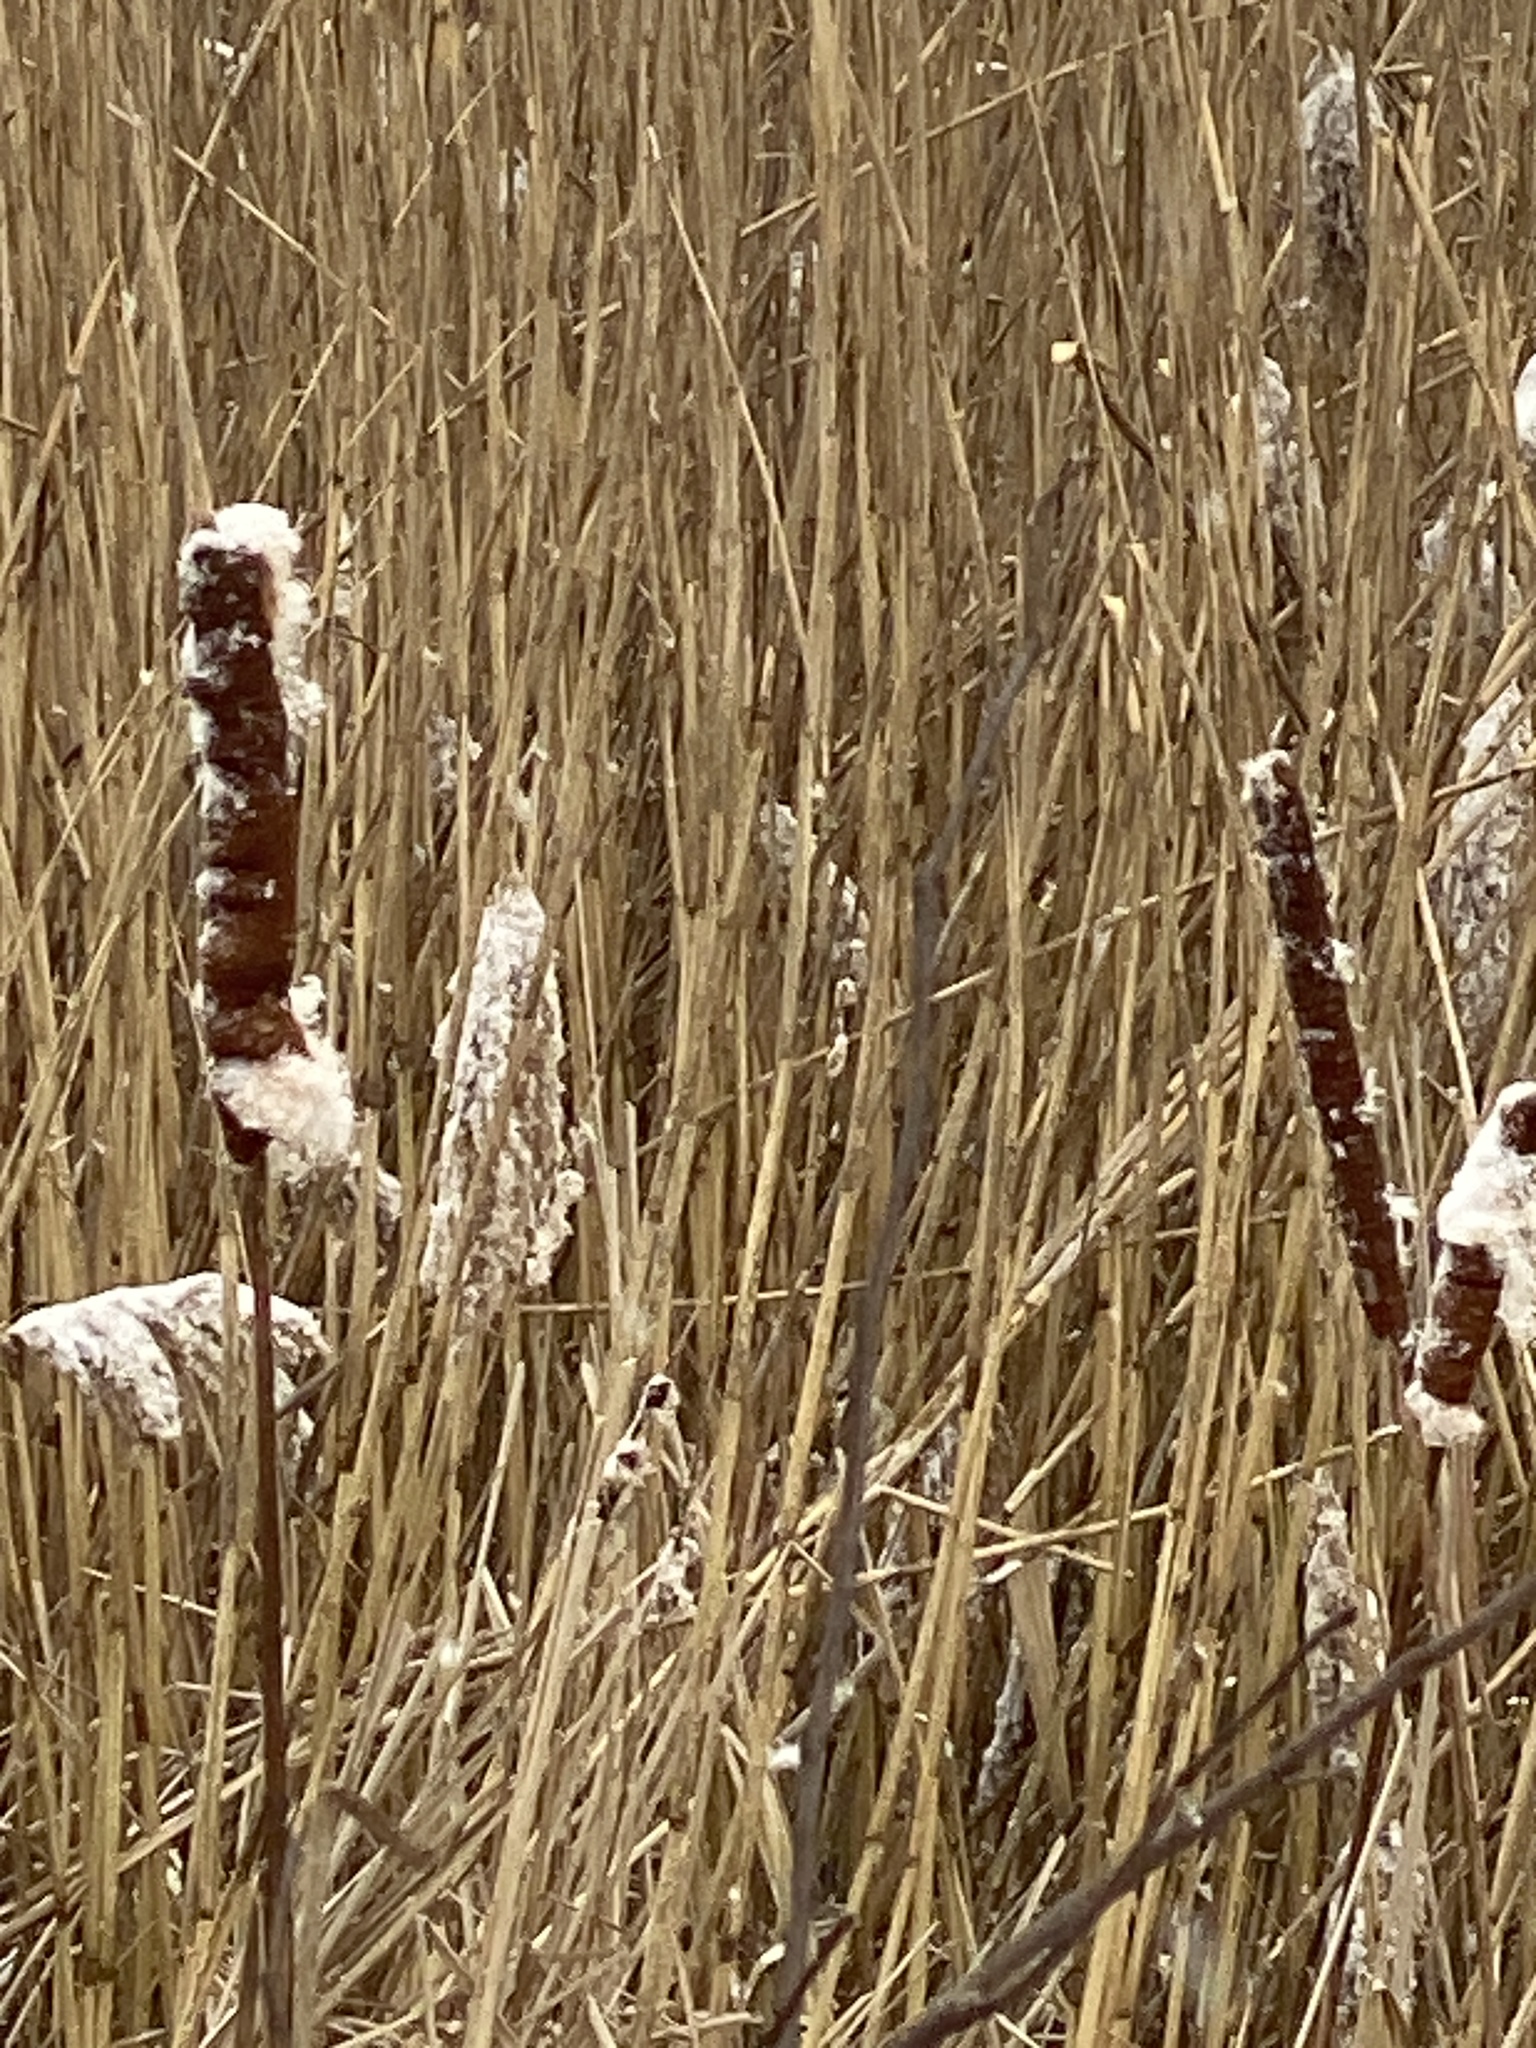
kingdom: Plantae
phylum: Tracheophyta
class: Liliopsida
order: Poales
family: Typhaceae
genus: Typha
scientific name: Typha
